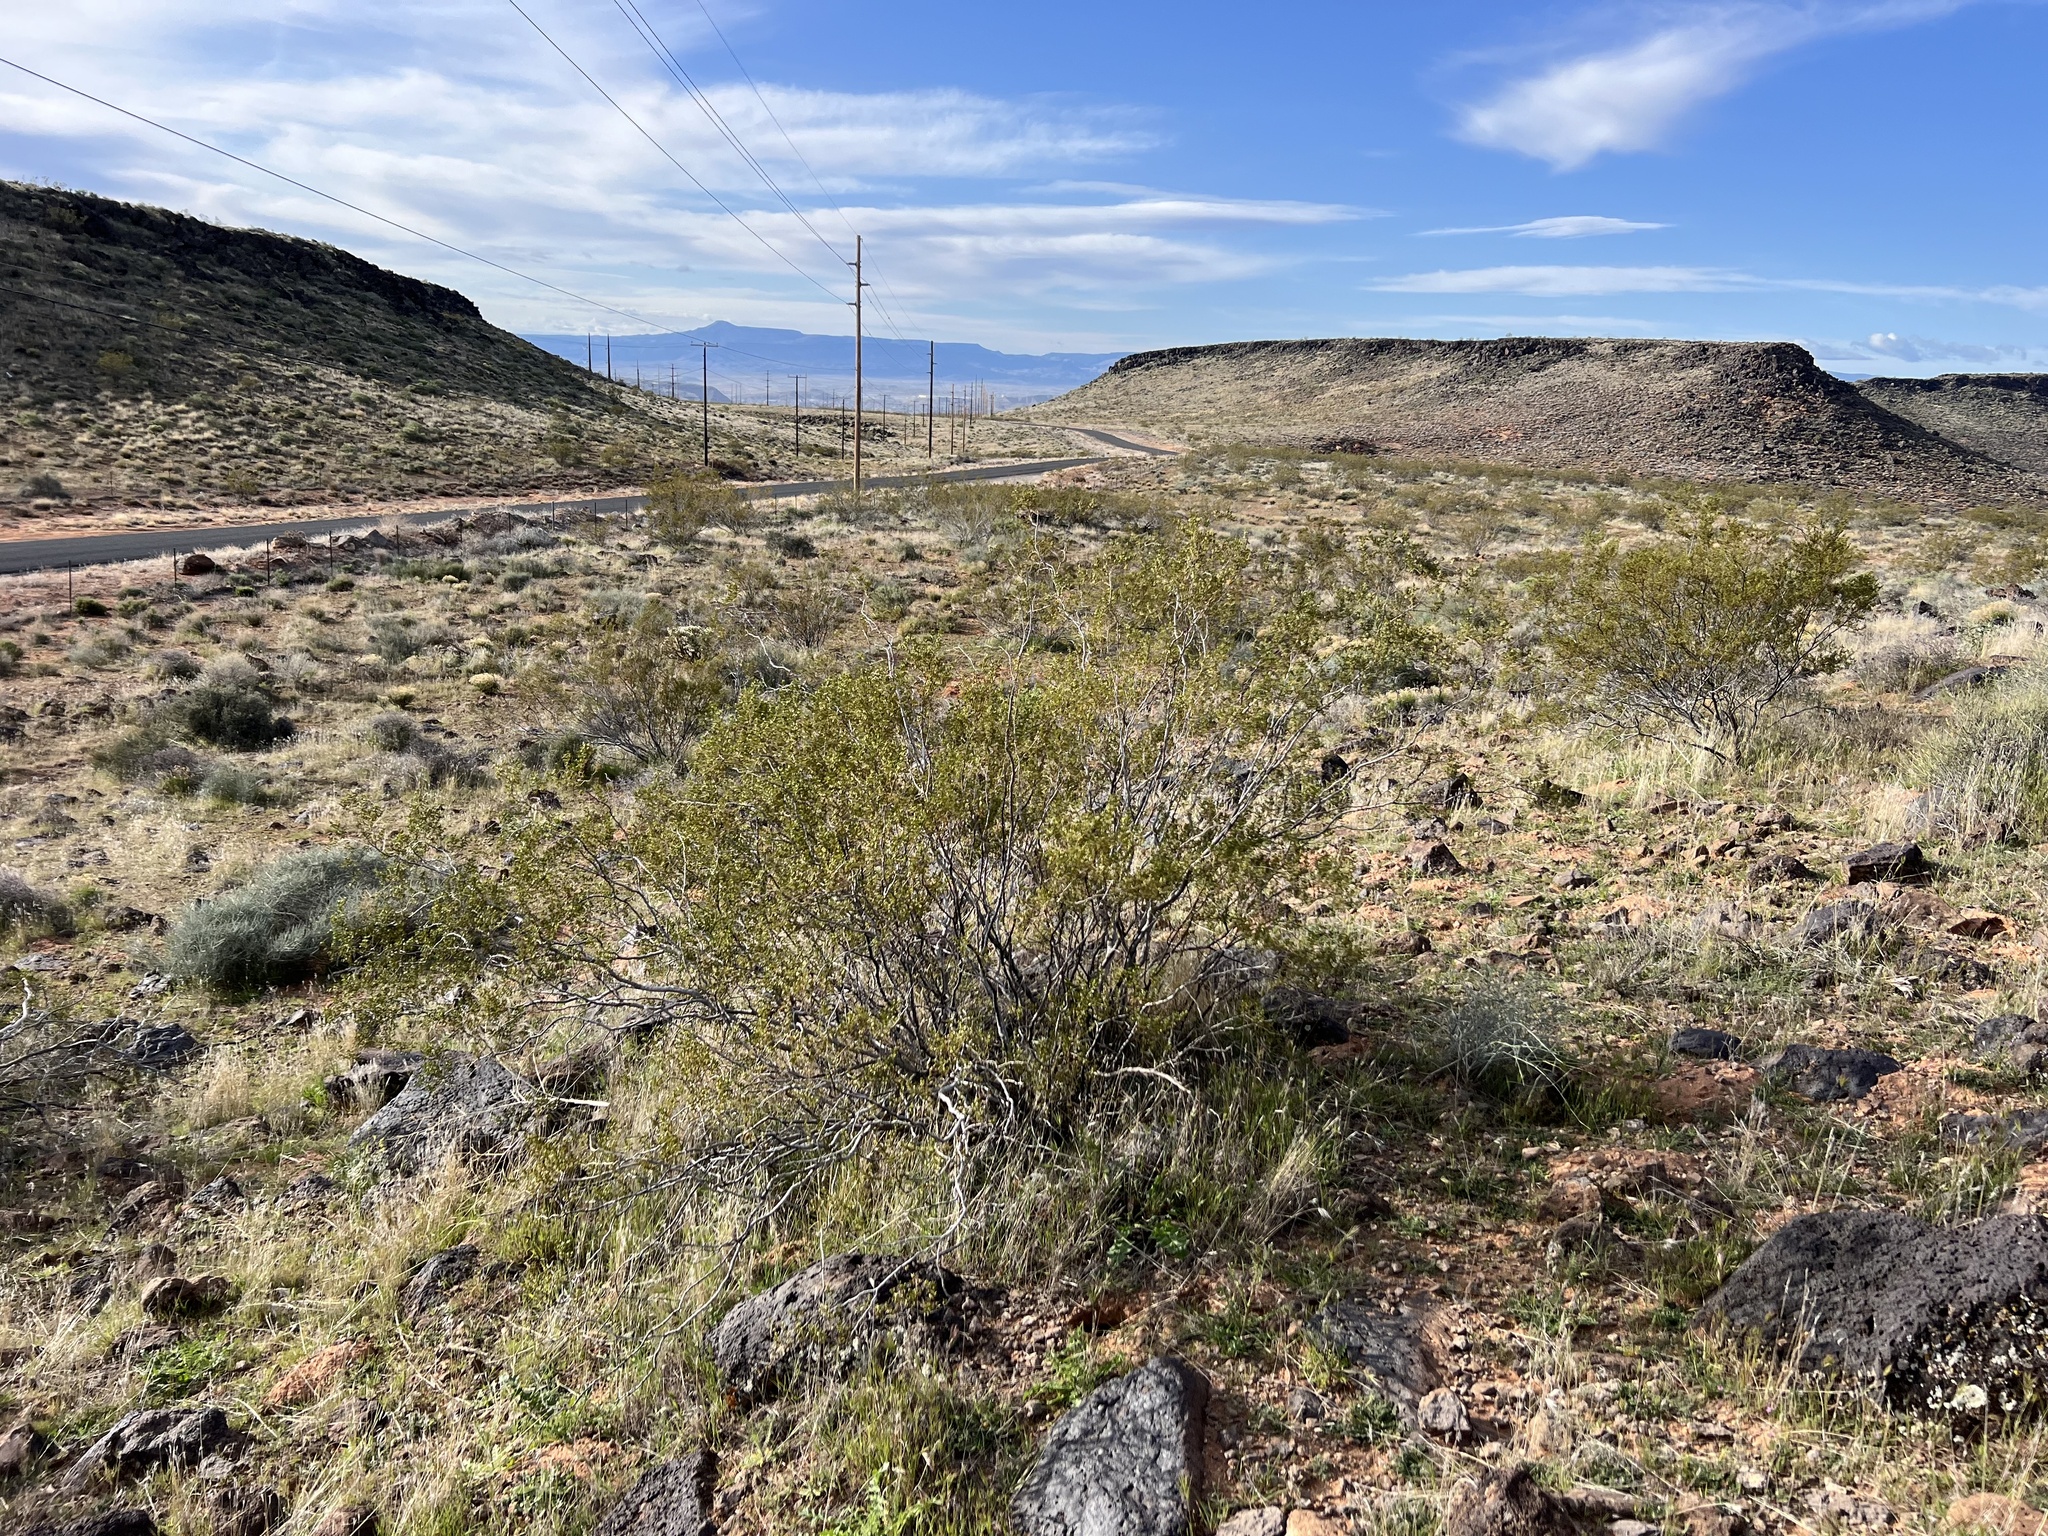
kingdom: Plantae
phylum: Tracheophyta
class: Magnoliopsida
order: Zygophyllales
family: Zygophyllaceae
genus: Larrea
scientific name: Larrea tridentata
